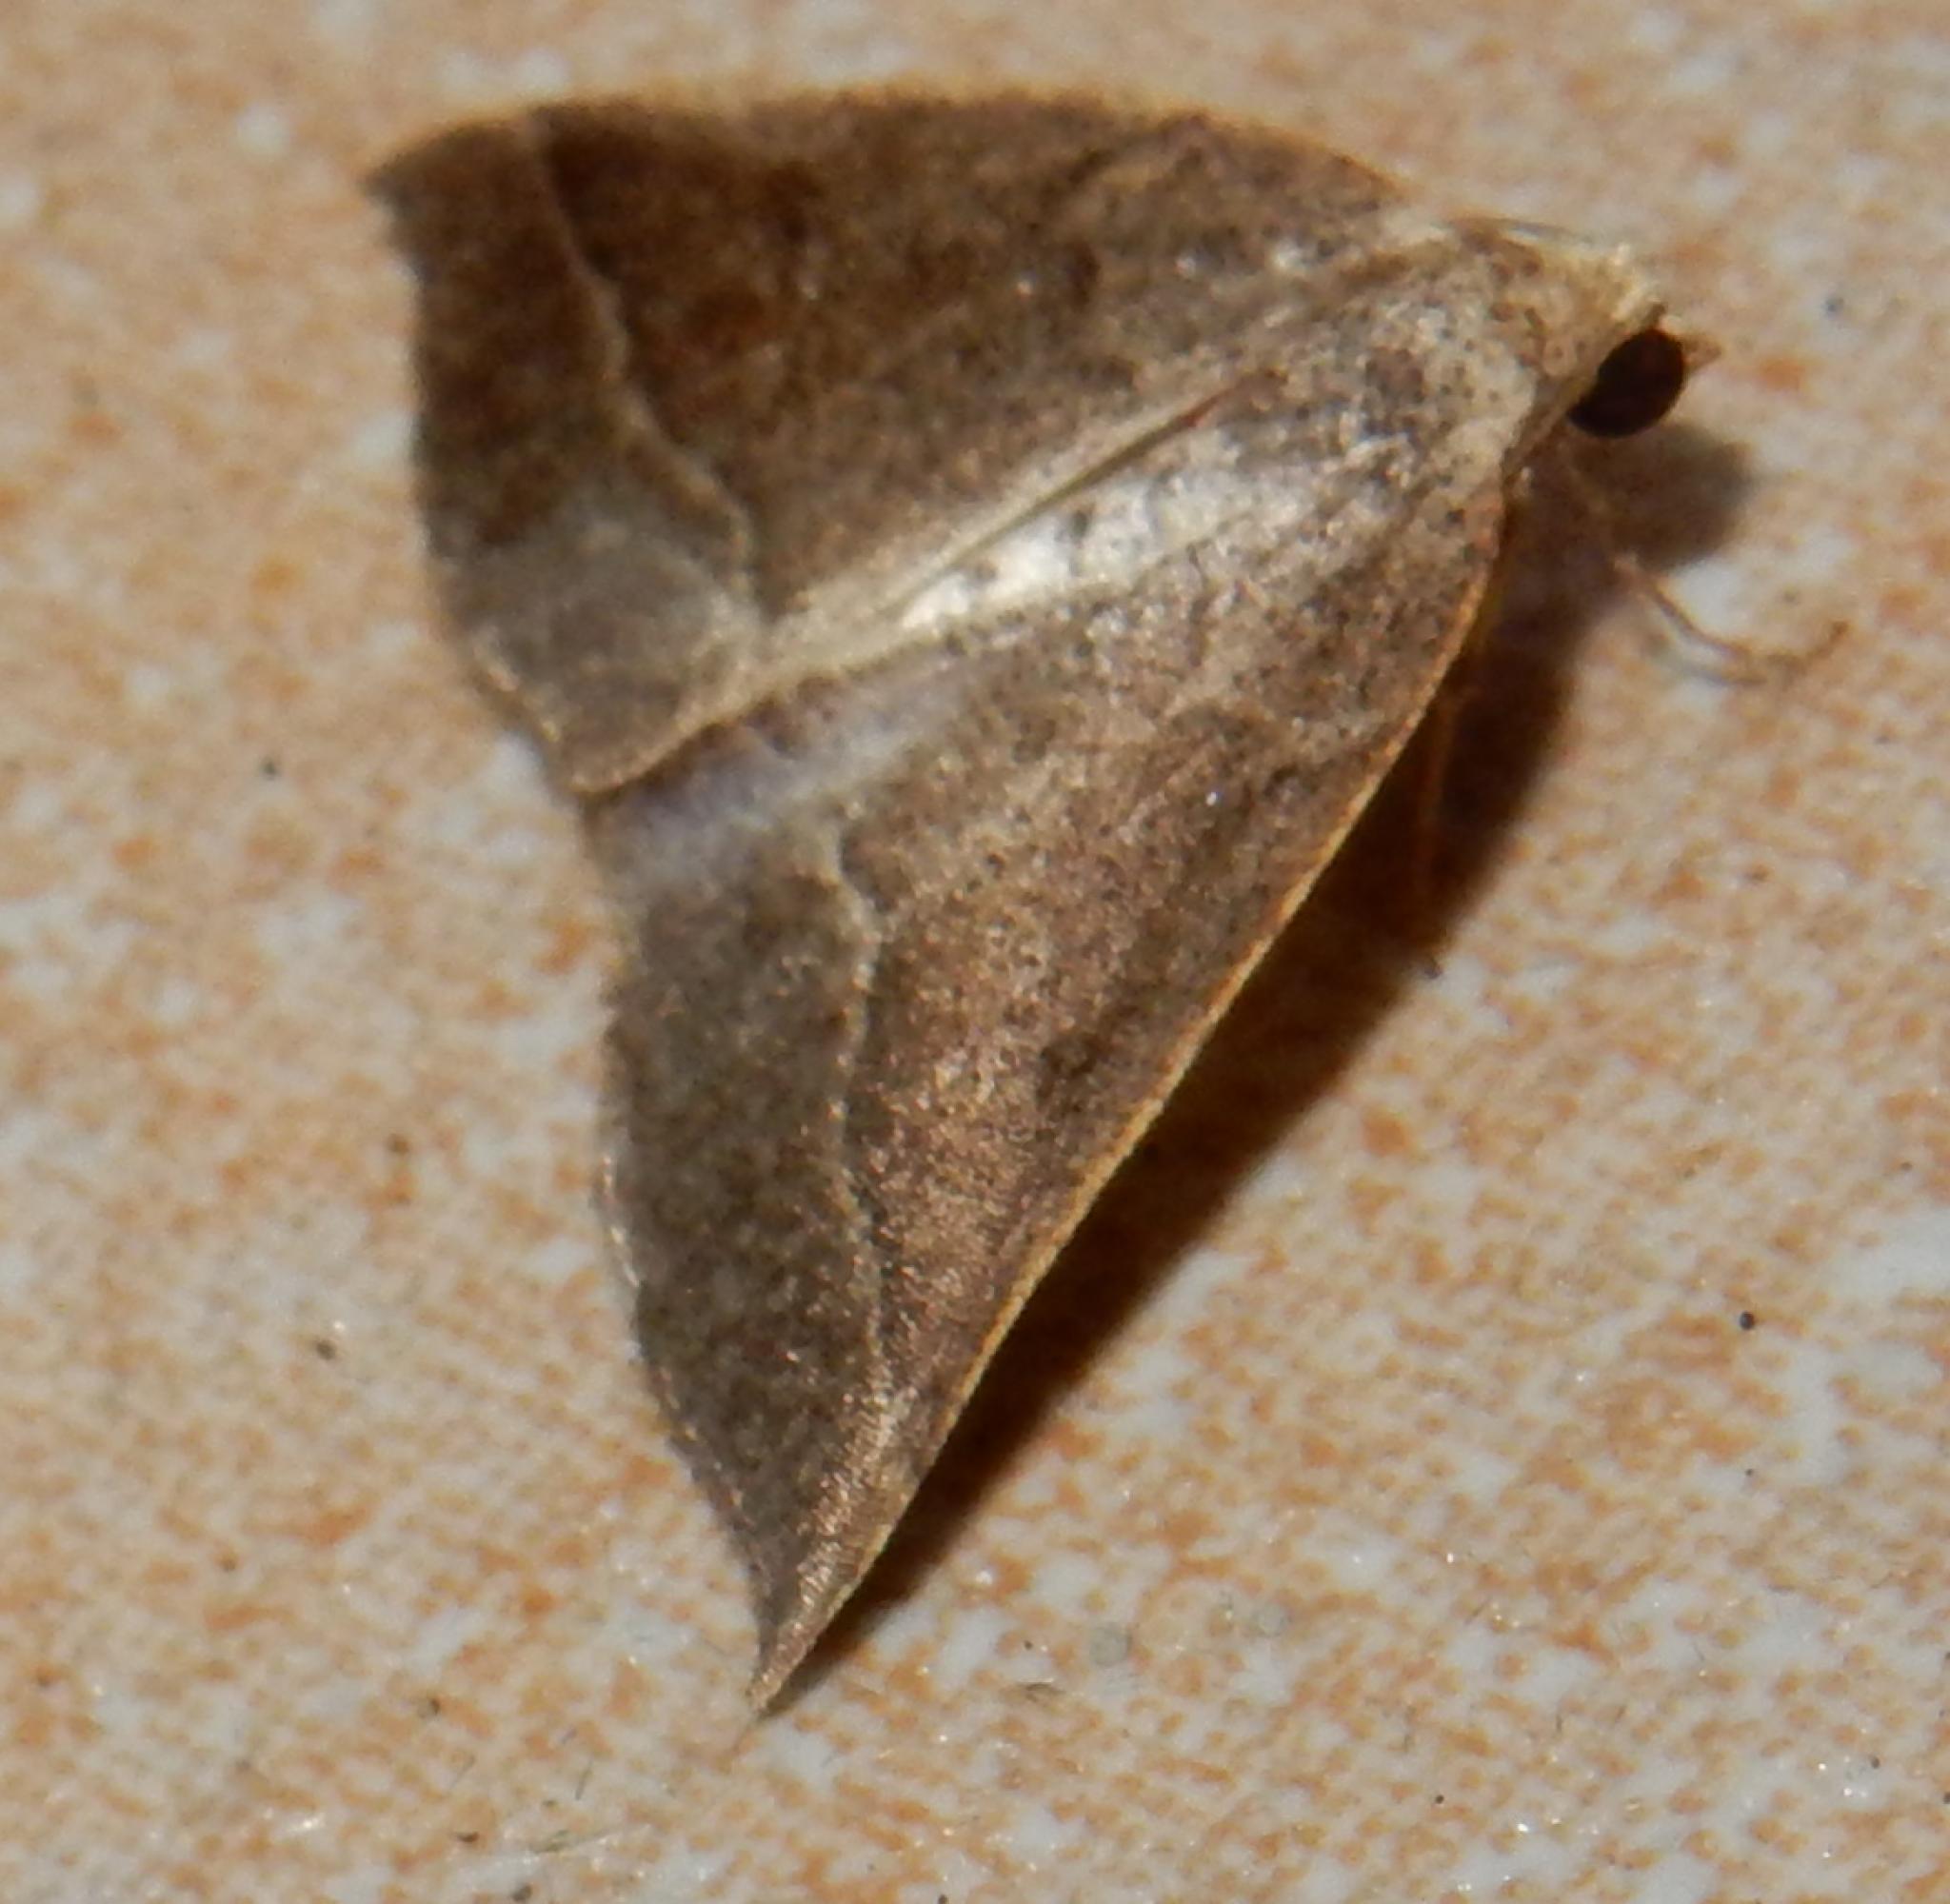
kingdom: Animalia
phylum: Arthropoda
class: Insecta
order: Lepidoptera
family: Geometridae
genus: Pareclipsis
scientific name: Pareclipsis oxyptera
